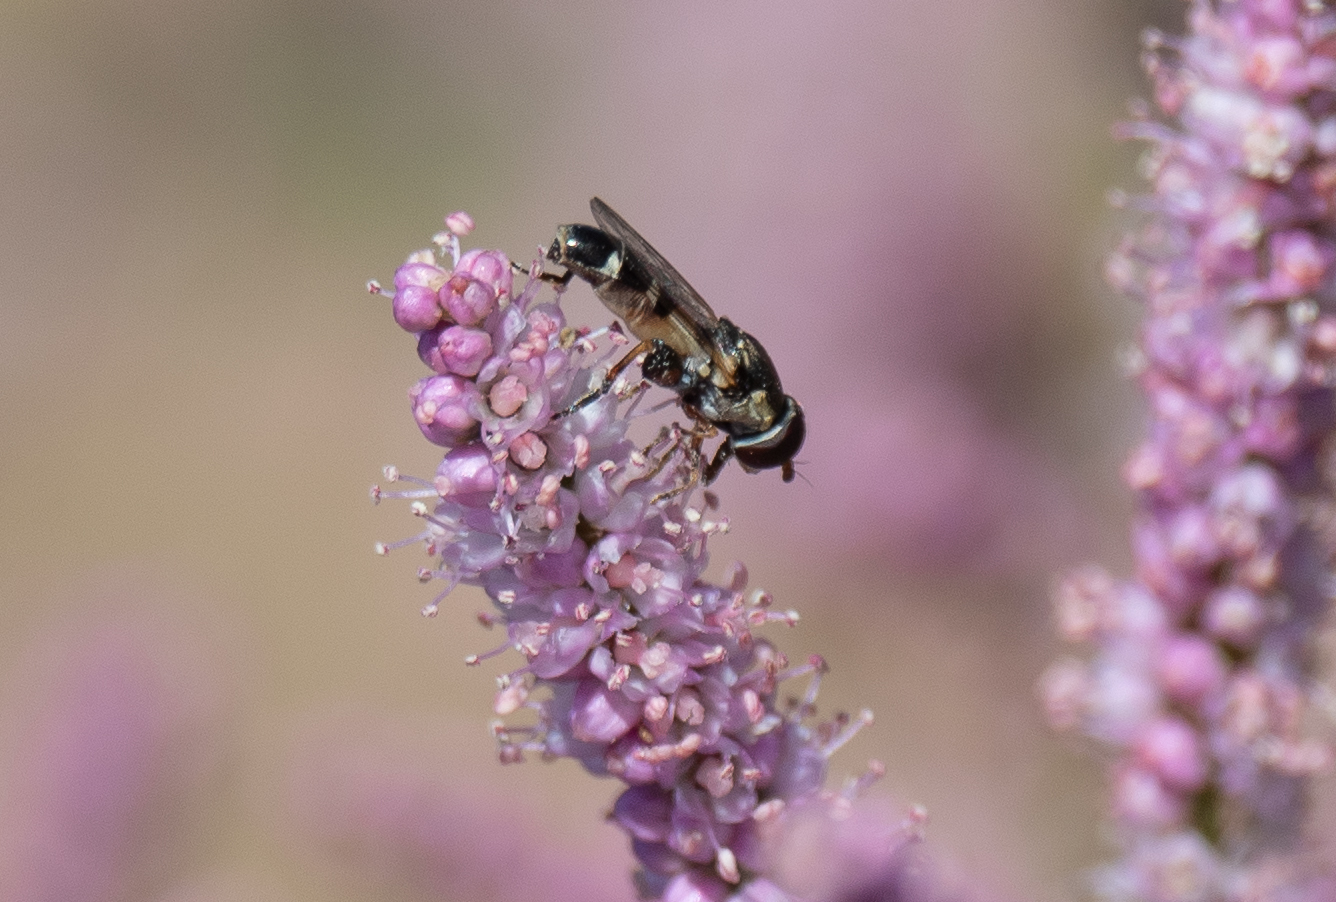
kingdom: Animalia
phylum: Arthropoda
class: Insecta
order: Diptera
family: Syrphidae
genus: Syritta
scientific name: Syritta pipiens
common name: Hover fly
